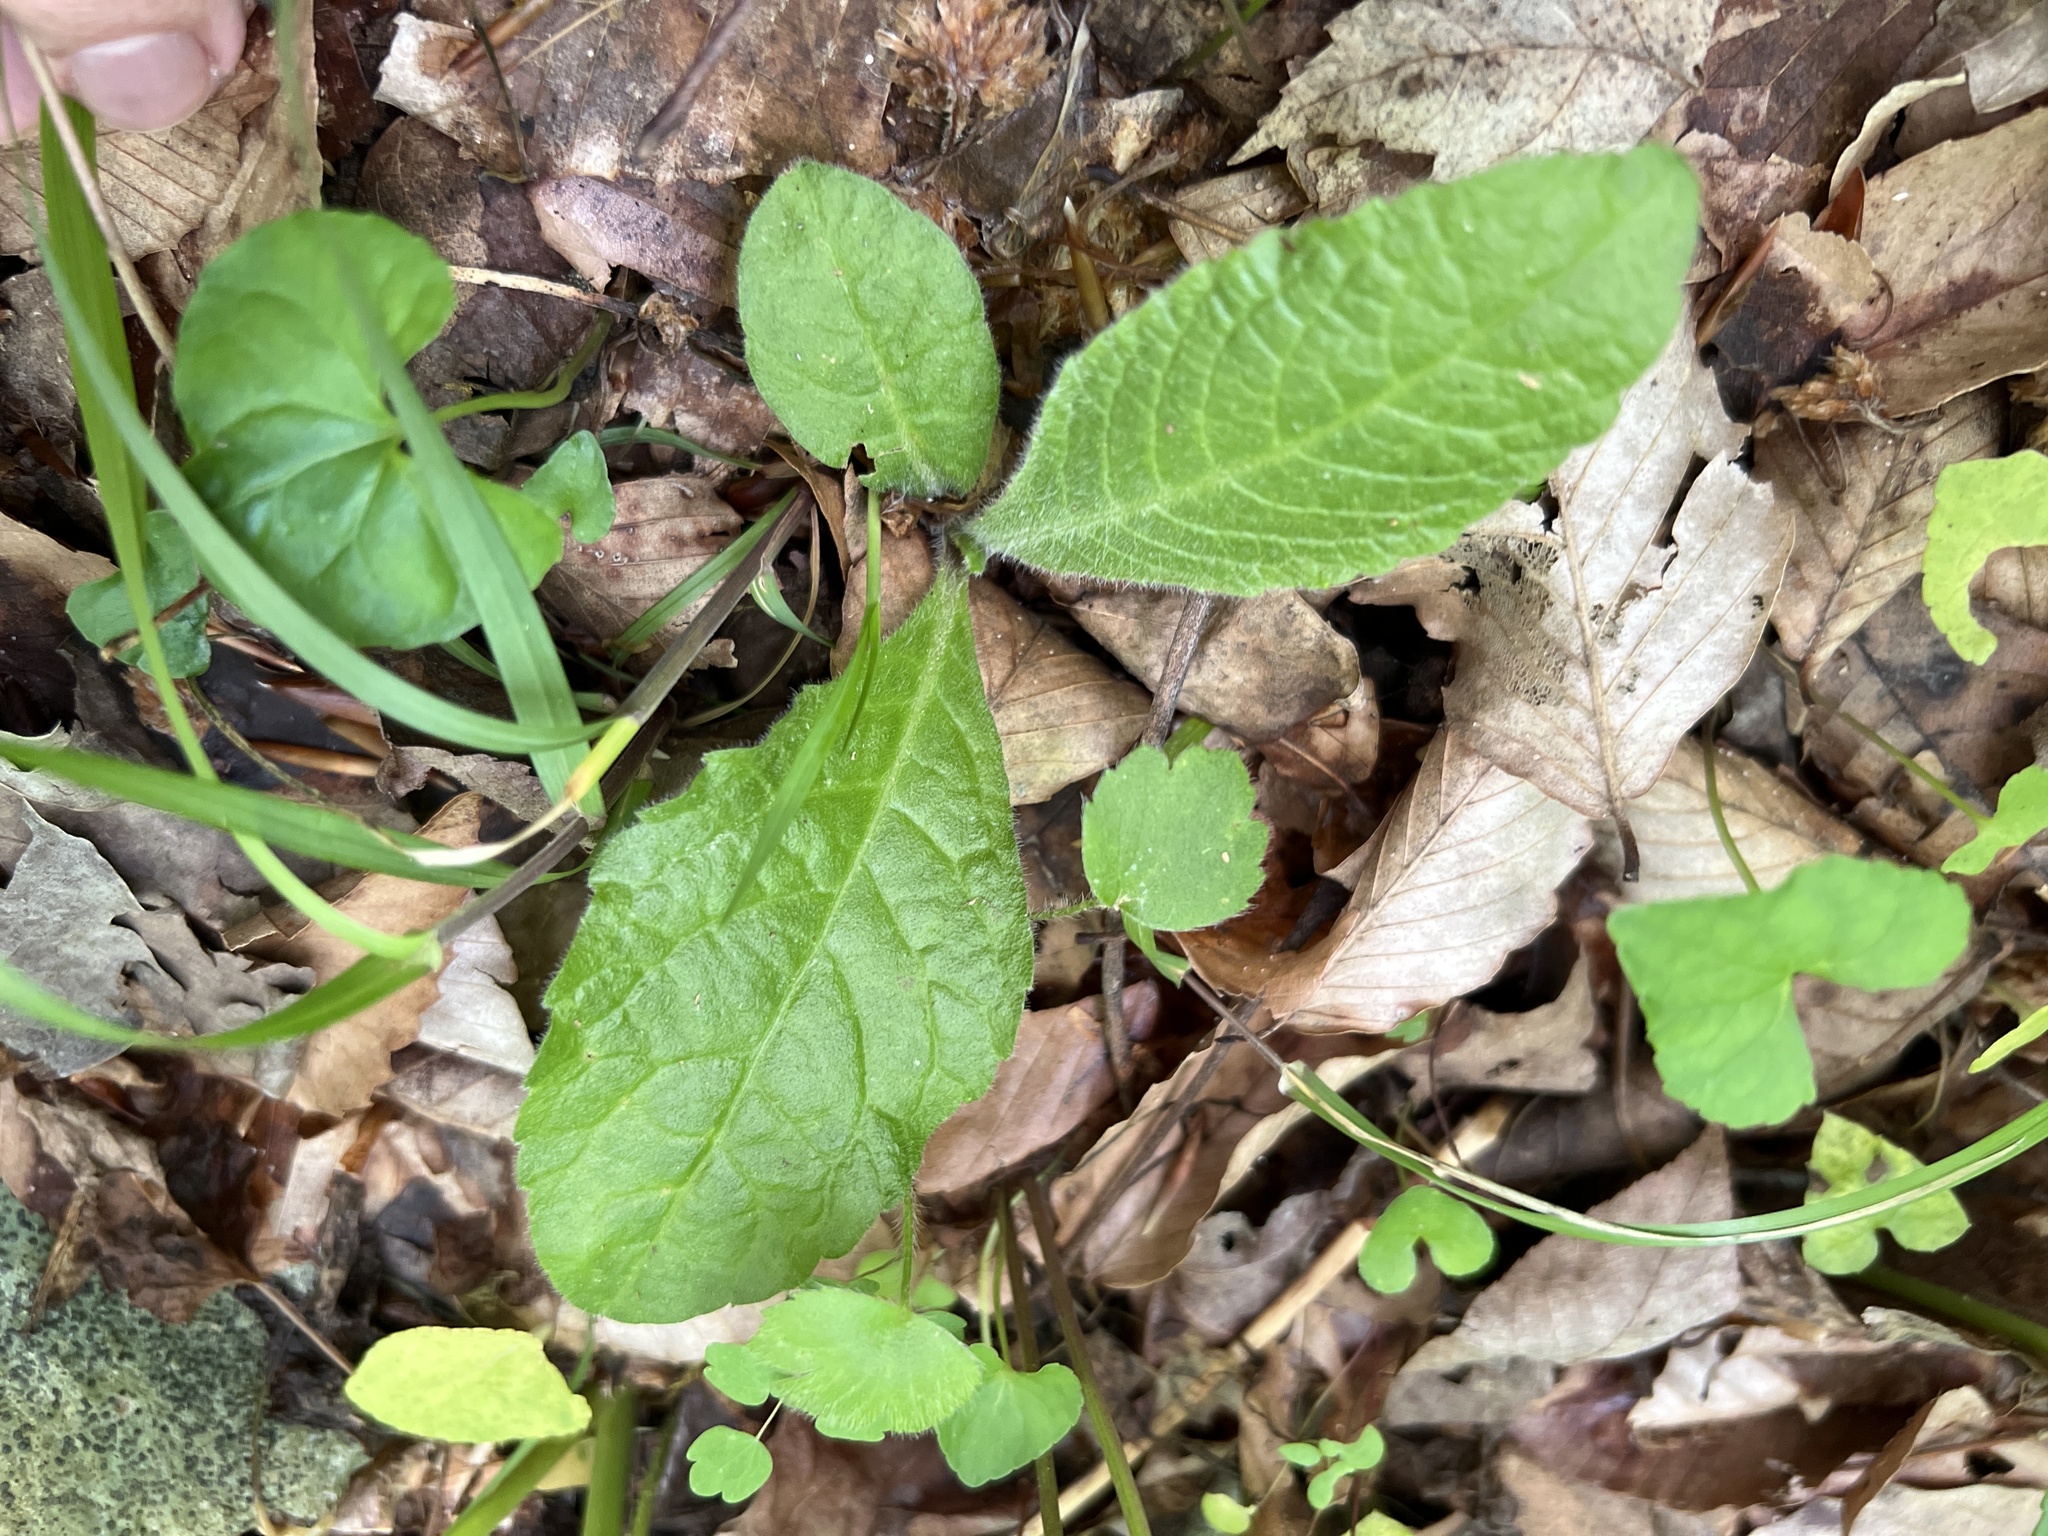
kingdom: Plantae
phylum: Tracheophyta
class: Magnoliopsida
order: Asterales
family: Asteraceae
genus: Elephantopus
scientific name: Elephantopus tomentosus
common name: Tobacco-weed
